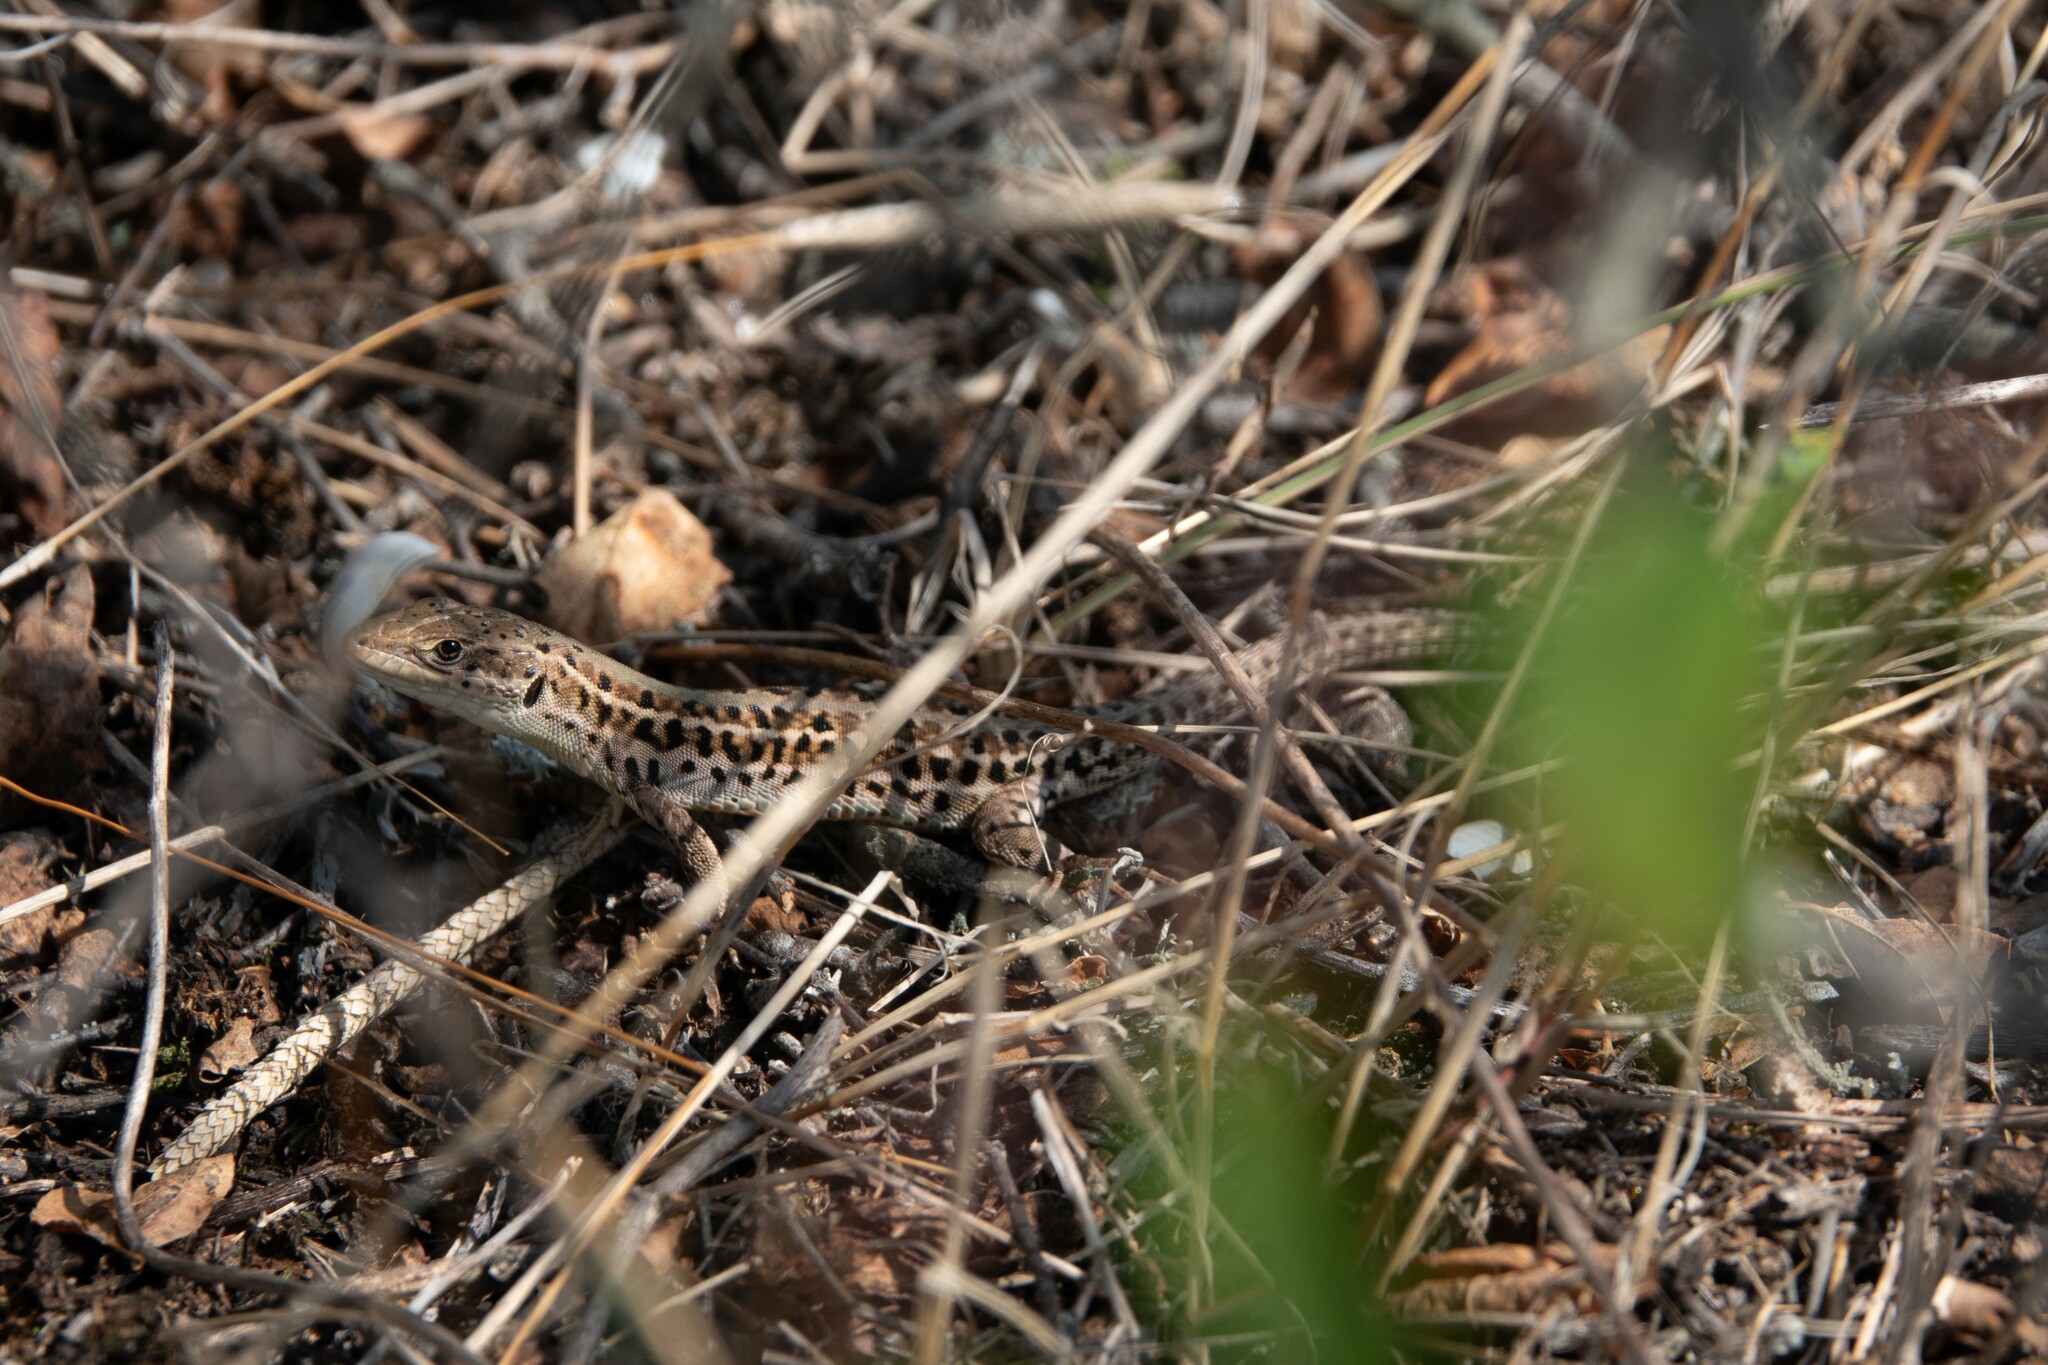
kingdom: Animalia
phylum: Chordata
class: Squamata
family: Lacertidae
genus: Podarcis
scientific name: Podarcis tauricus
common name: Balkan wall lizard
